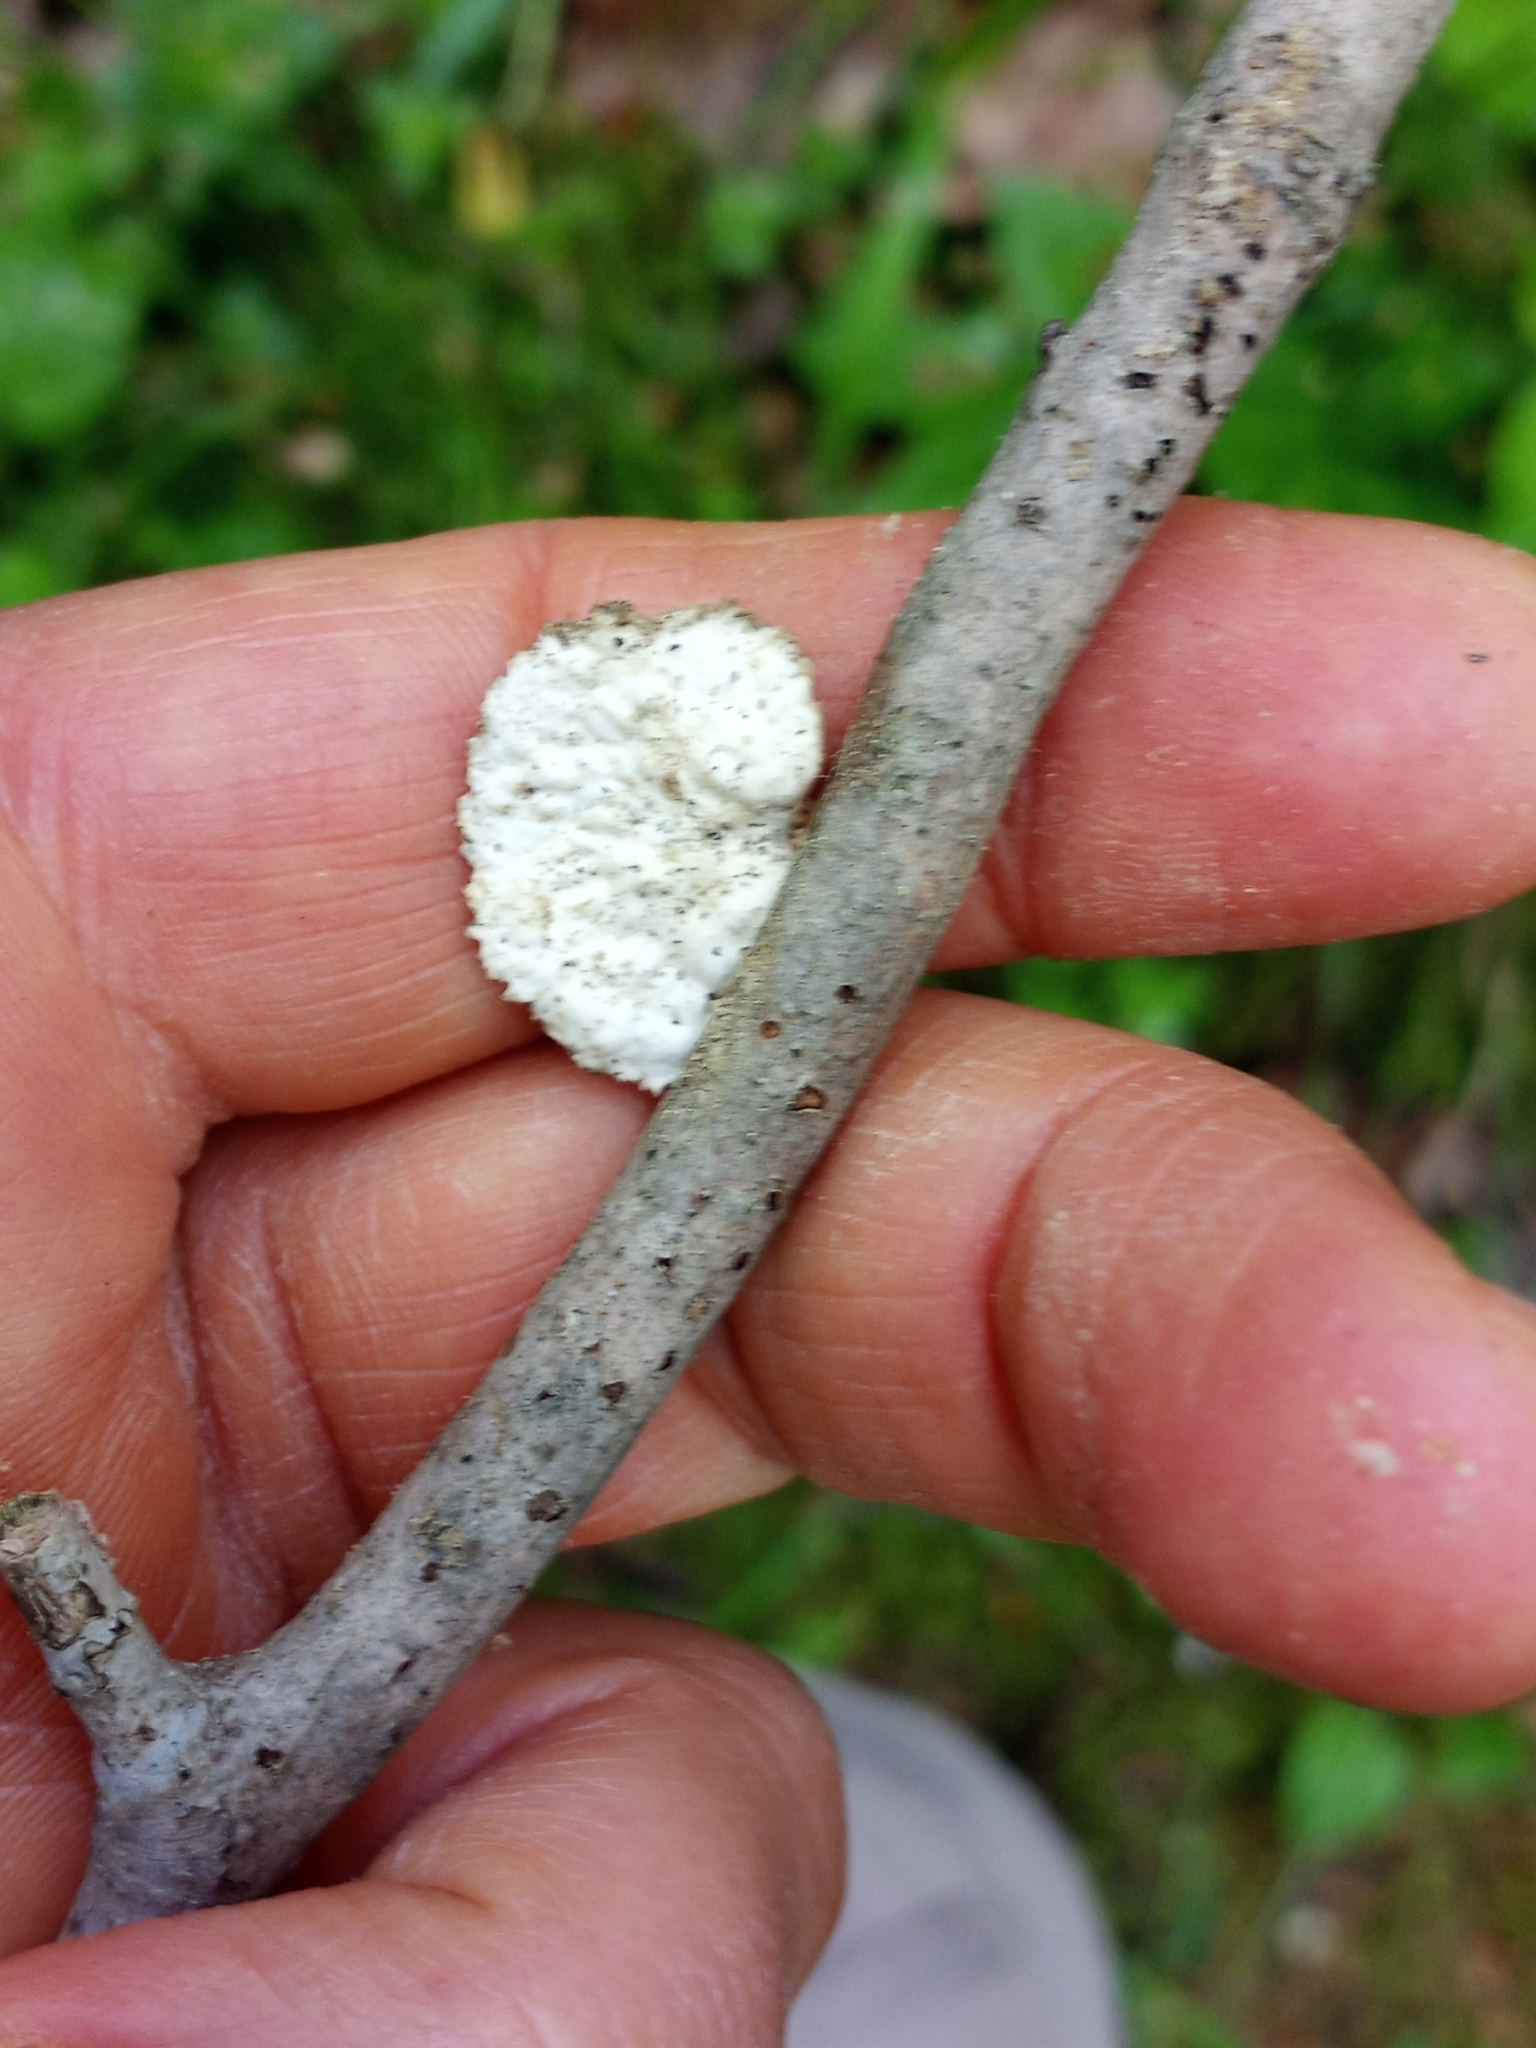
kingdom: Fungi
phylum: Basidiomycota
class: Agaricomycetes
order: Polyporales
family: Polyporaceae
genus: Neofavolus
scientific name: Neofavolus alveolaris
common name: Hexagonal-pored polypore
